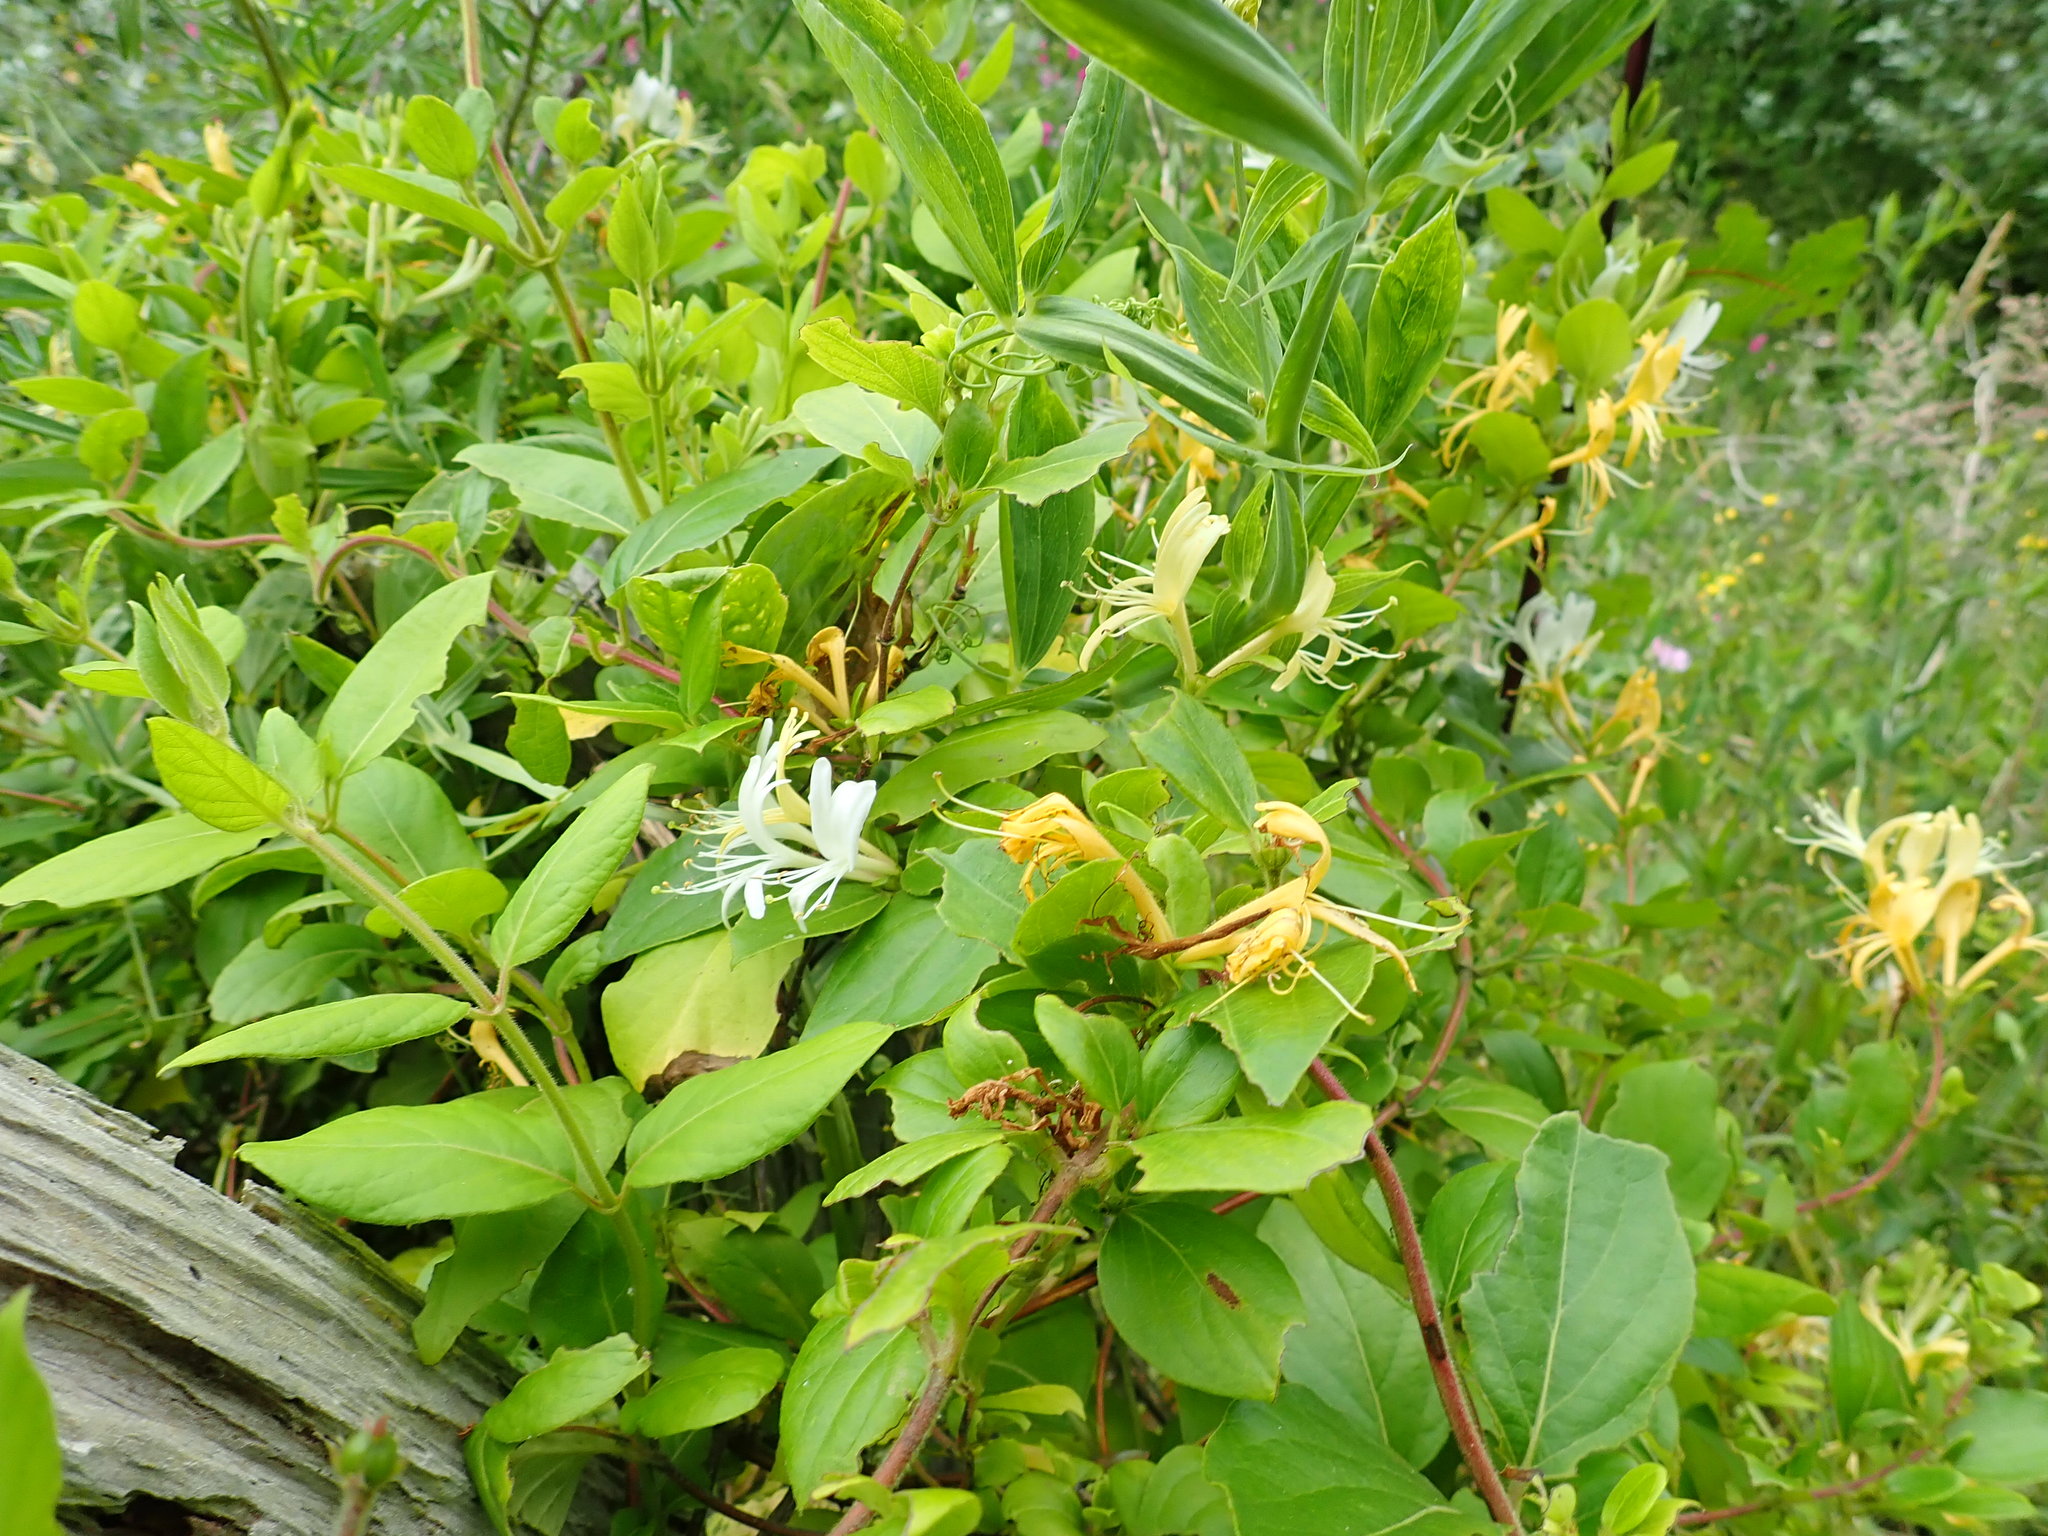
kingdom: Plantae
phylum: Tracheophyta
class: Magnoliopsida
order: Dipsacales
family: Caprifoliaceae
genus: Lonicera
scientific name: Lonicera japonica
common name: Japanese honeysuckle
